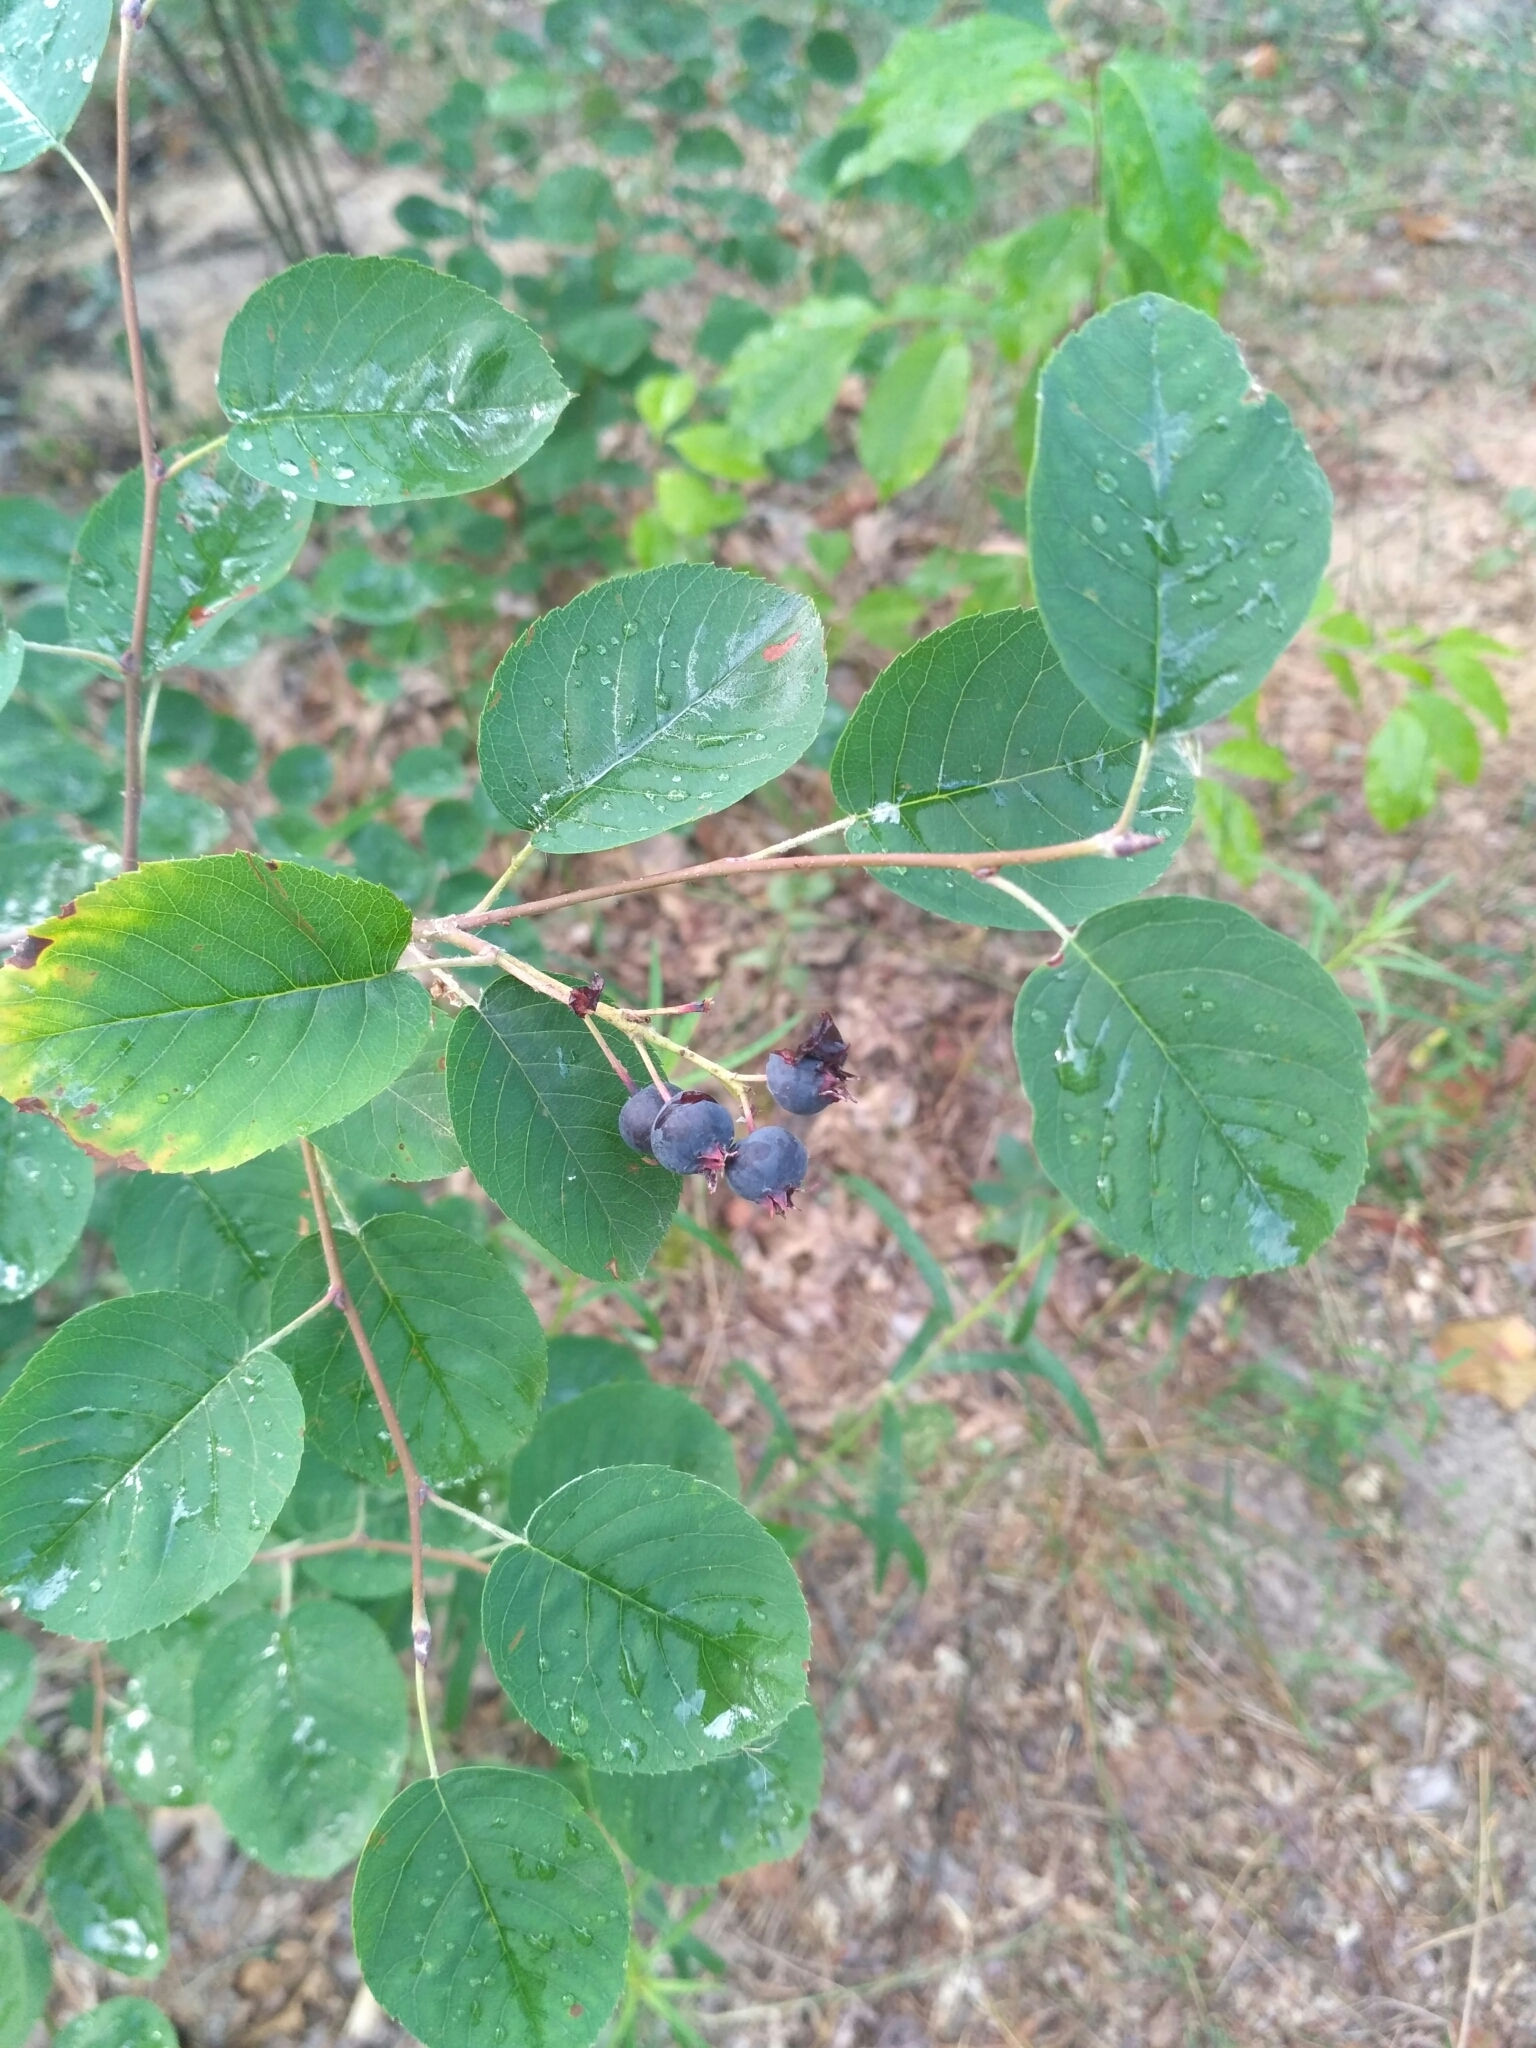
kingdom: Plantae
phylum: Tracheophyta
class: Magnoliopsida
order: Rosales
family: Rosaceae
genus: Amelanchier
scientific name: Amelanchier
